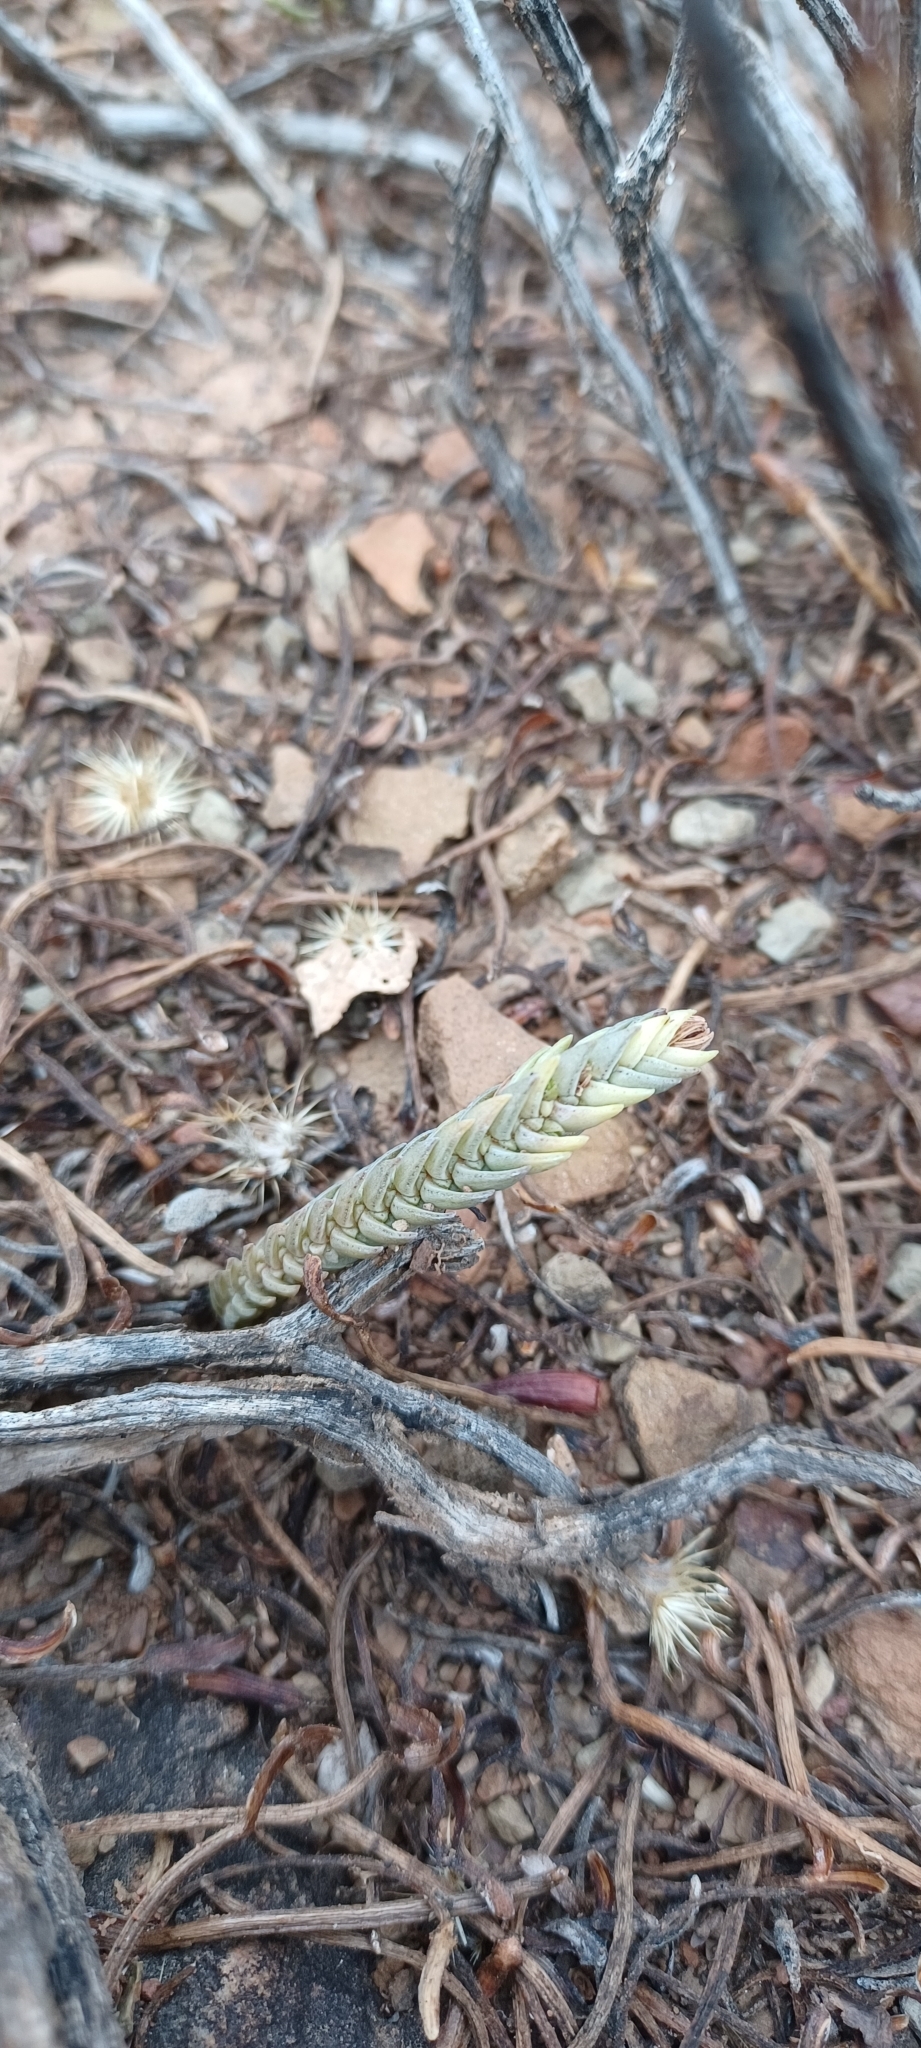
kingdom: Plantae
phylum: Tracheophyta
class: Magnoliopsida
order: Saxifragales
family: Crassulaceae
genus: Crassula
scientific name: Crassula muscosa
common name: Toy-cypress
